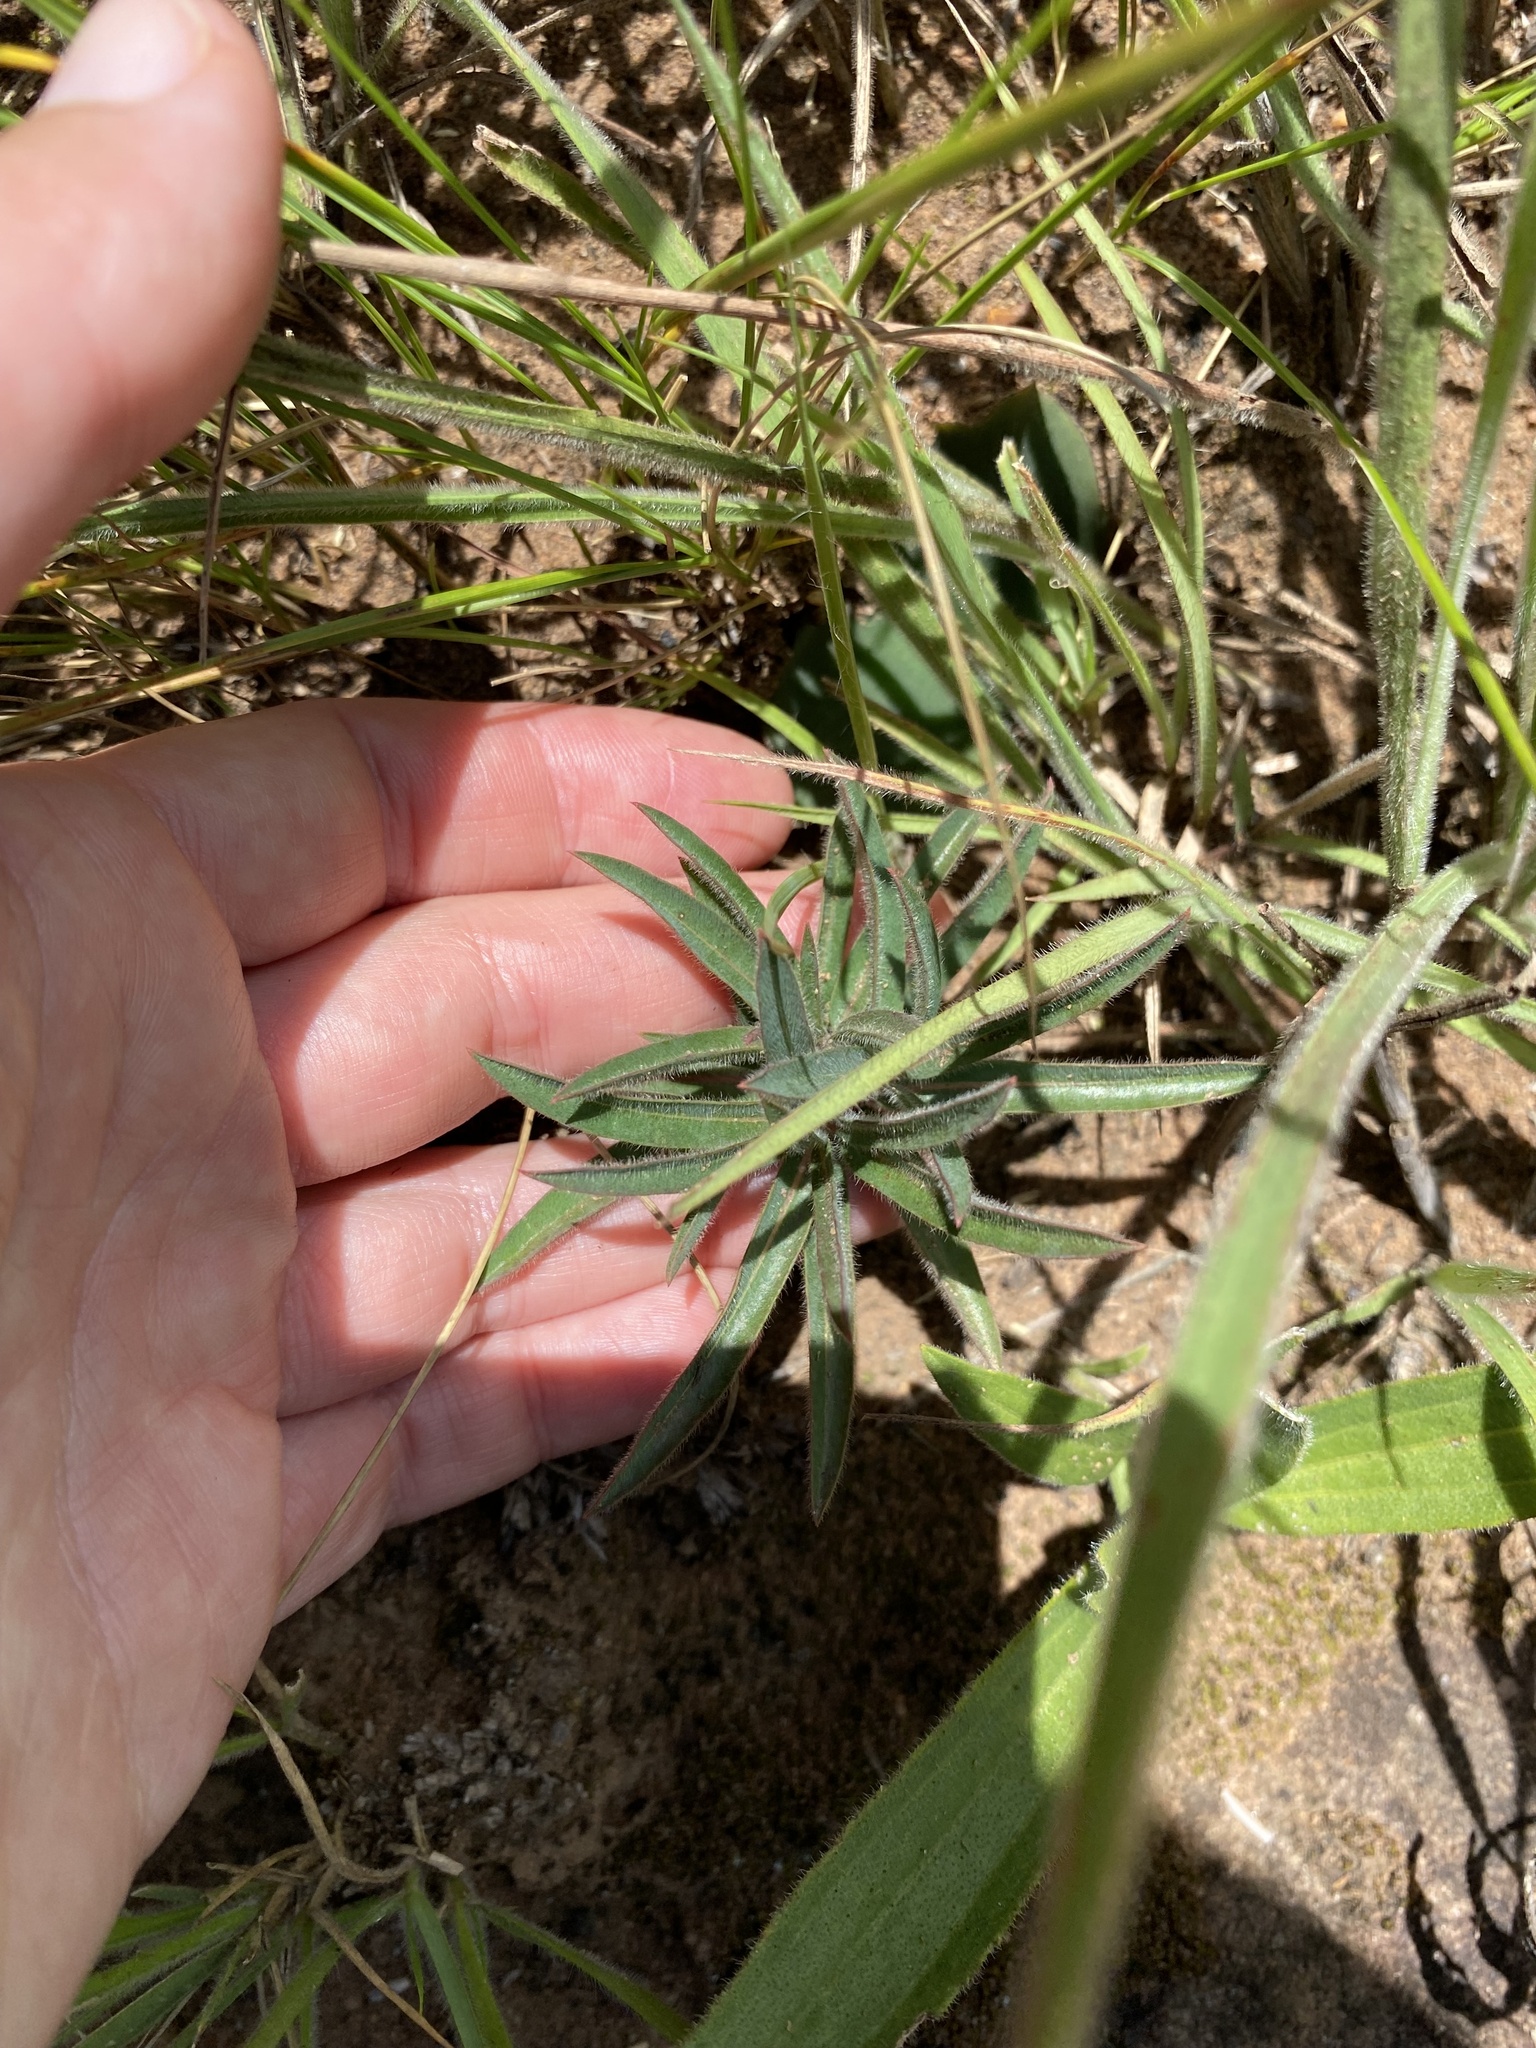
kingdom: Plantae
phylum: Tracheophyta
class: Magnoliopsida
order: Malpighiales
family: Euphorbiaceae
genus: Euphorbia
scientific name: Euphorbia gueinzii
